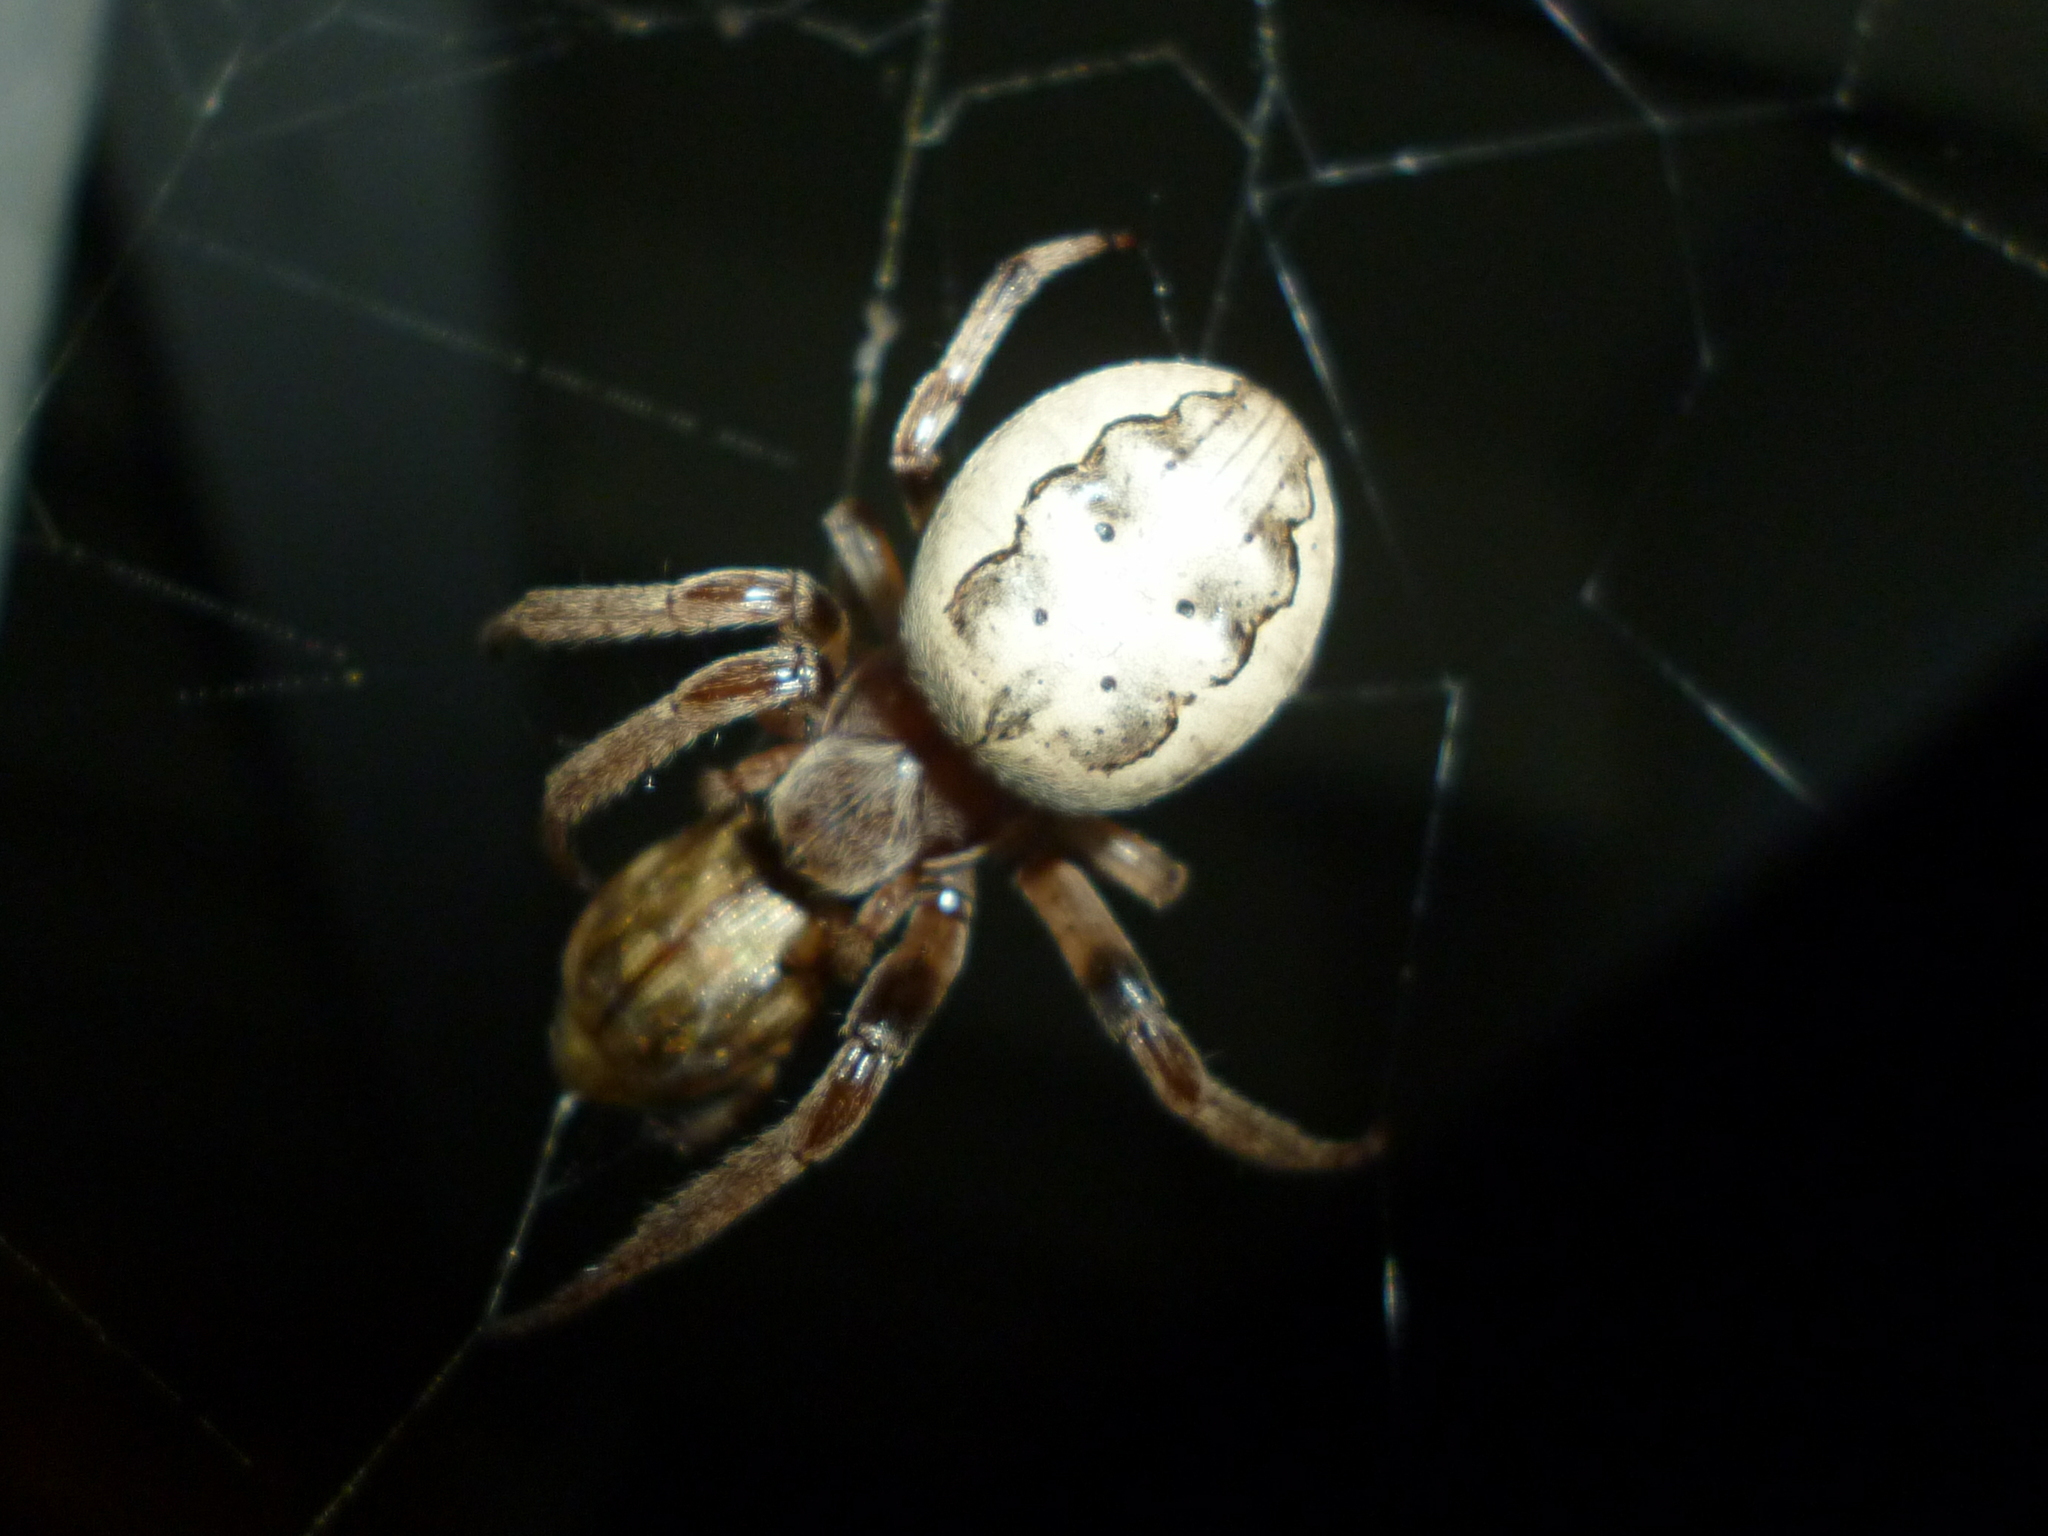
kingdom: Animalia
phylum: Arthropoda
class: Arachnida
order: Araneae
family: Araneidae
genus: Larinioides
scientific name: Larinioides cornutus
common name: Furrow orbweaver
